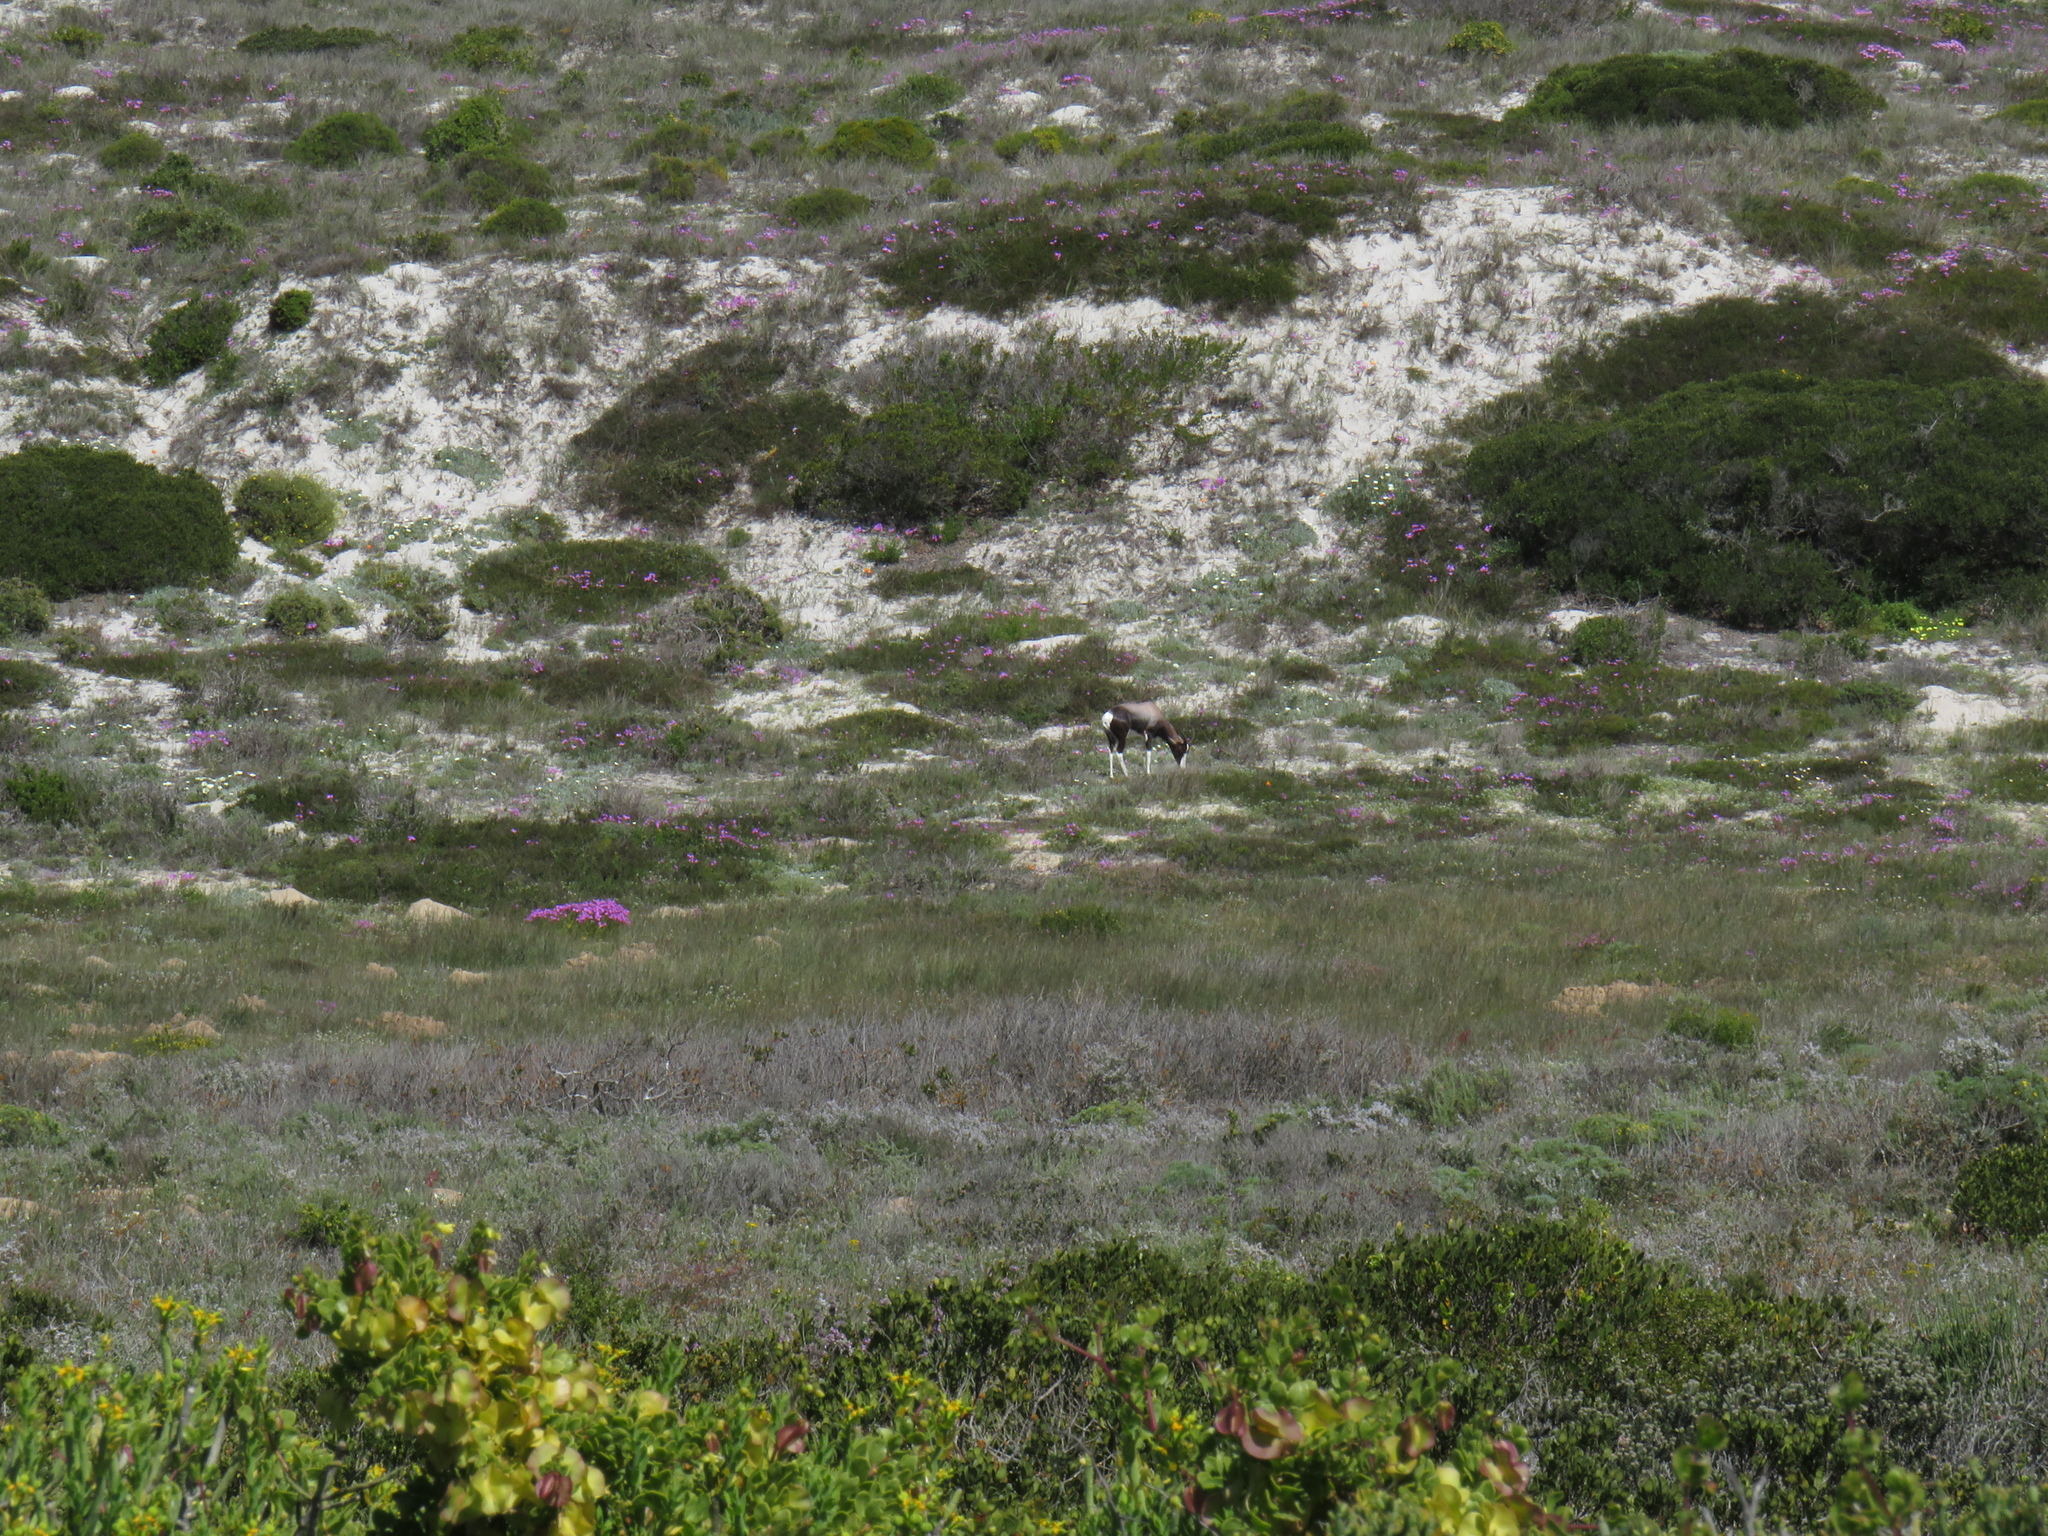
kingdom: Animalia
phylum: Chordata
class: Mammalia
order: Artiodactyla
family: Bovidae
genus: Damaliscus
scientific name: Damaliscus pygargus
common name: Bontebok
